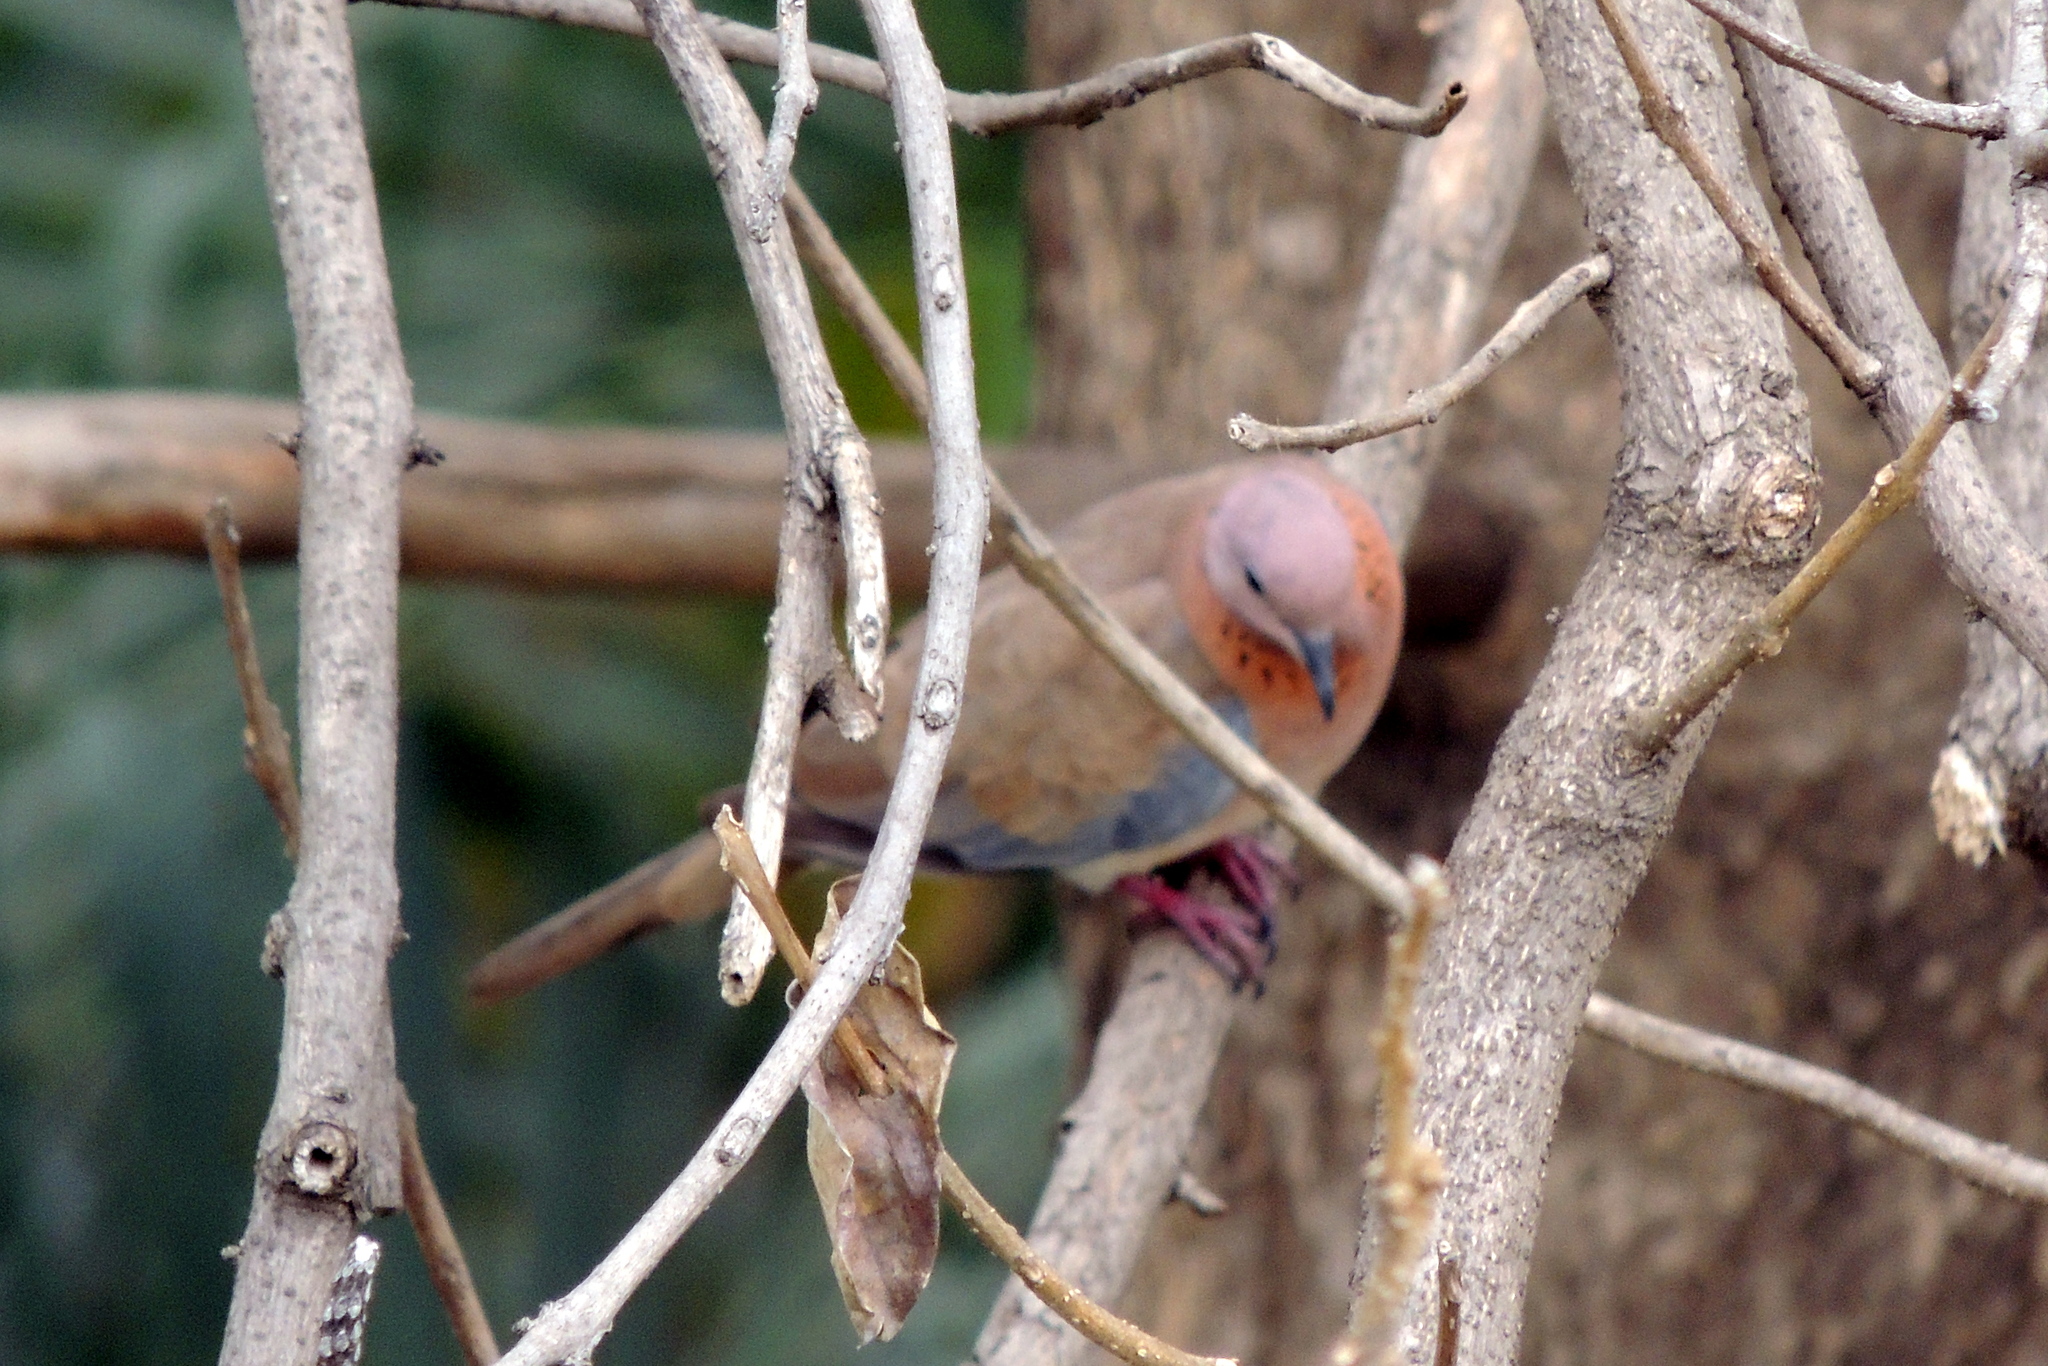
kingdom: Animalia
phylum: Chordata
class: Aves
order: Columbiformes
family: Columbidae
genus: Spilopelia
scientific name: Spilopelia senegalensis
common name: Laughing dove
